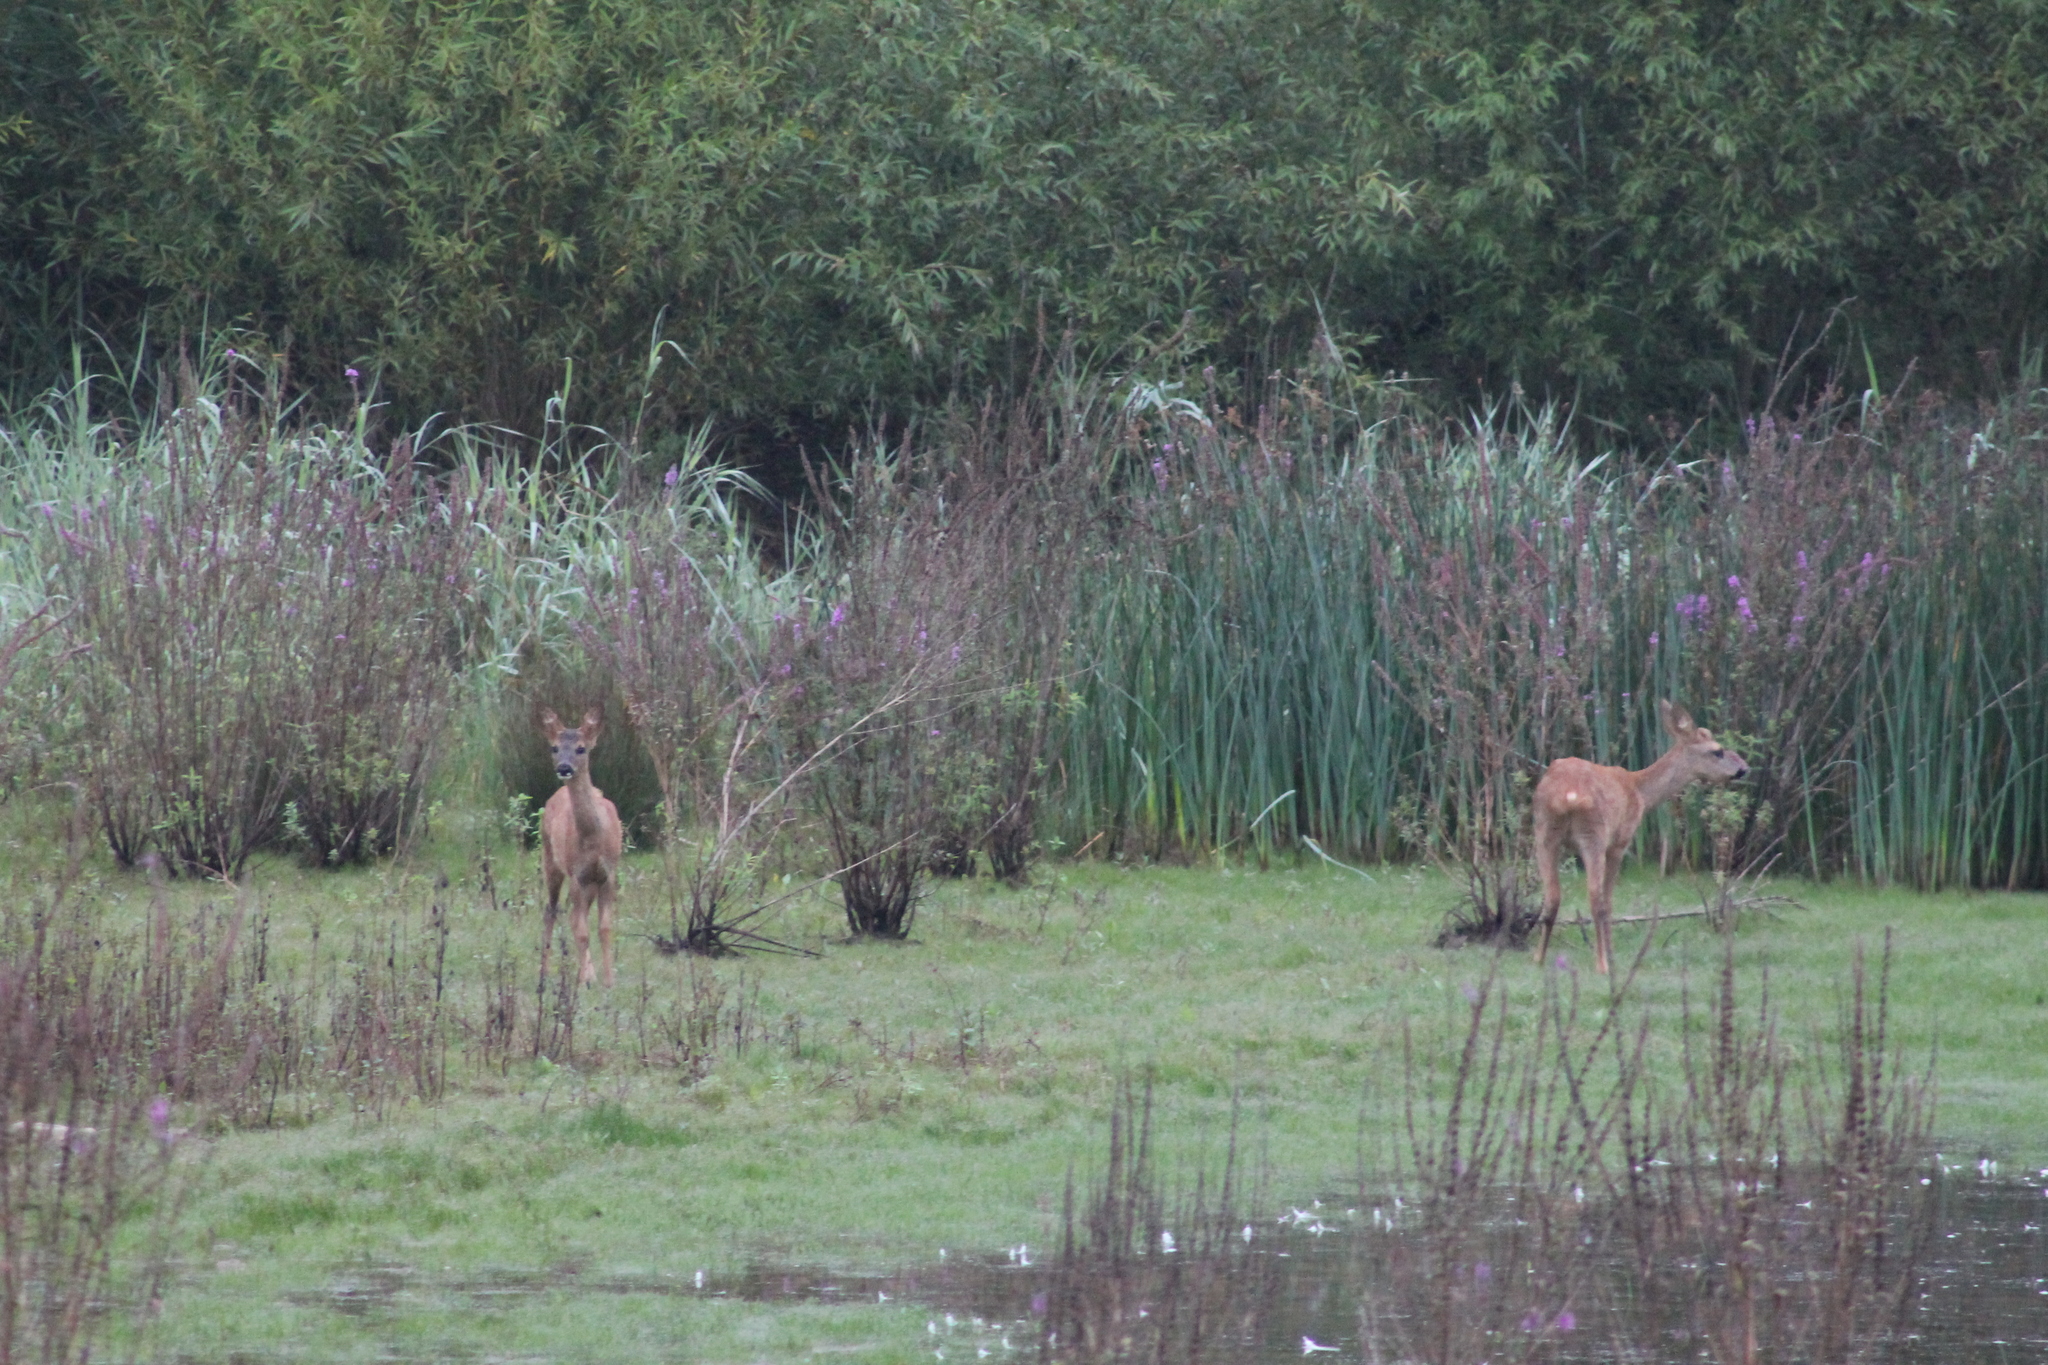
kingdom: Animalia
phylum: Chordata
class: Mammalia
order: Artiodactyla
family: Cervidae
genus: Capreolus
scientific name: Capreolus capreolus
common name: Western roe deer
